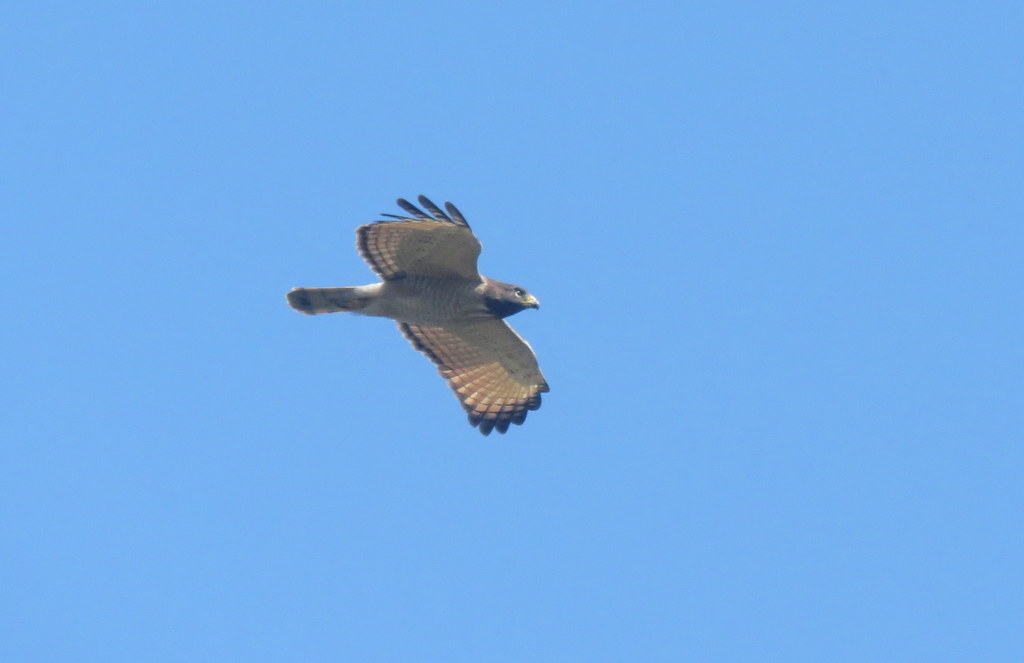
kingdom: Animalia
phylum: Chordata
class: Aves
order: Accipitriformes
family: Accipitridae
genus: Rupornis
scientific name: Rupornis magnirostris
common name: Roadside hawk
